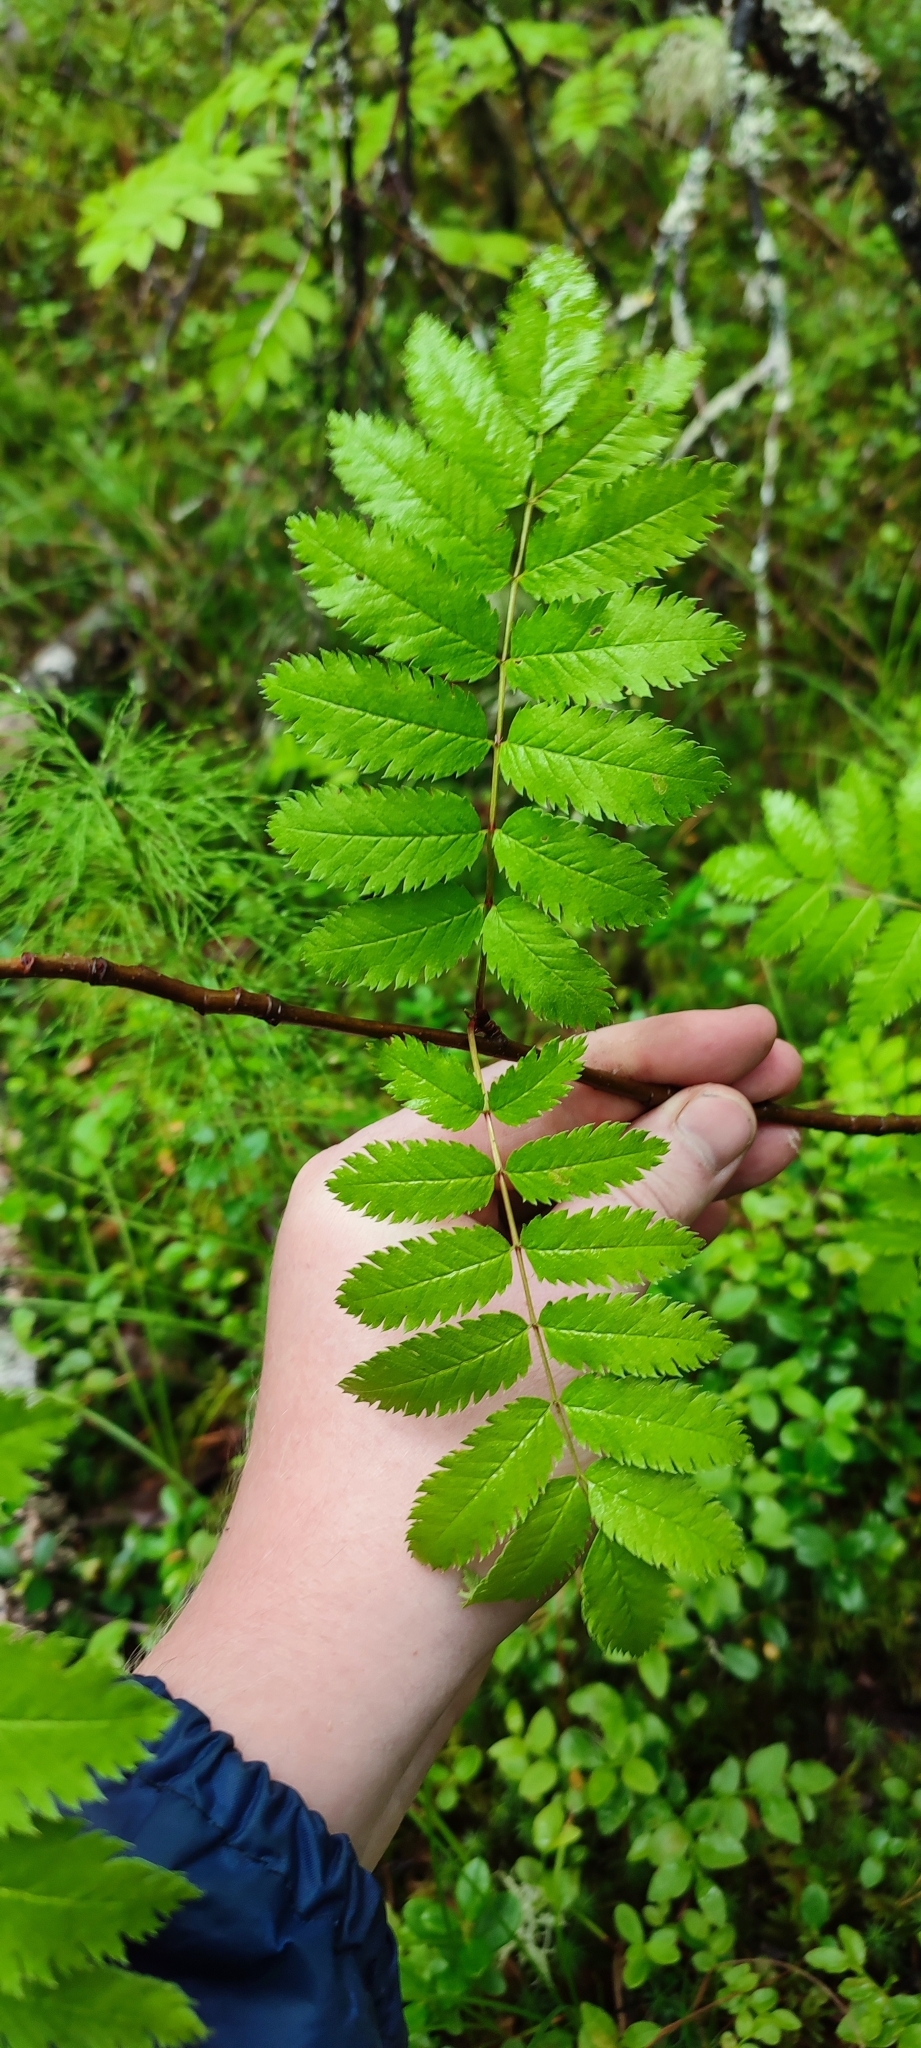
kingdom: Plantae
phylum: Tracheophyta
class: Magnoliopsida
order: Rosales
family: Rosaceae
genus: Sorbus
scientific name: Sorbus aucuparia
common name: Rowan
